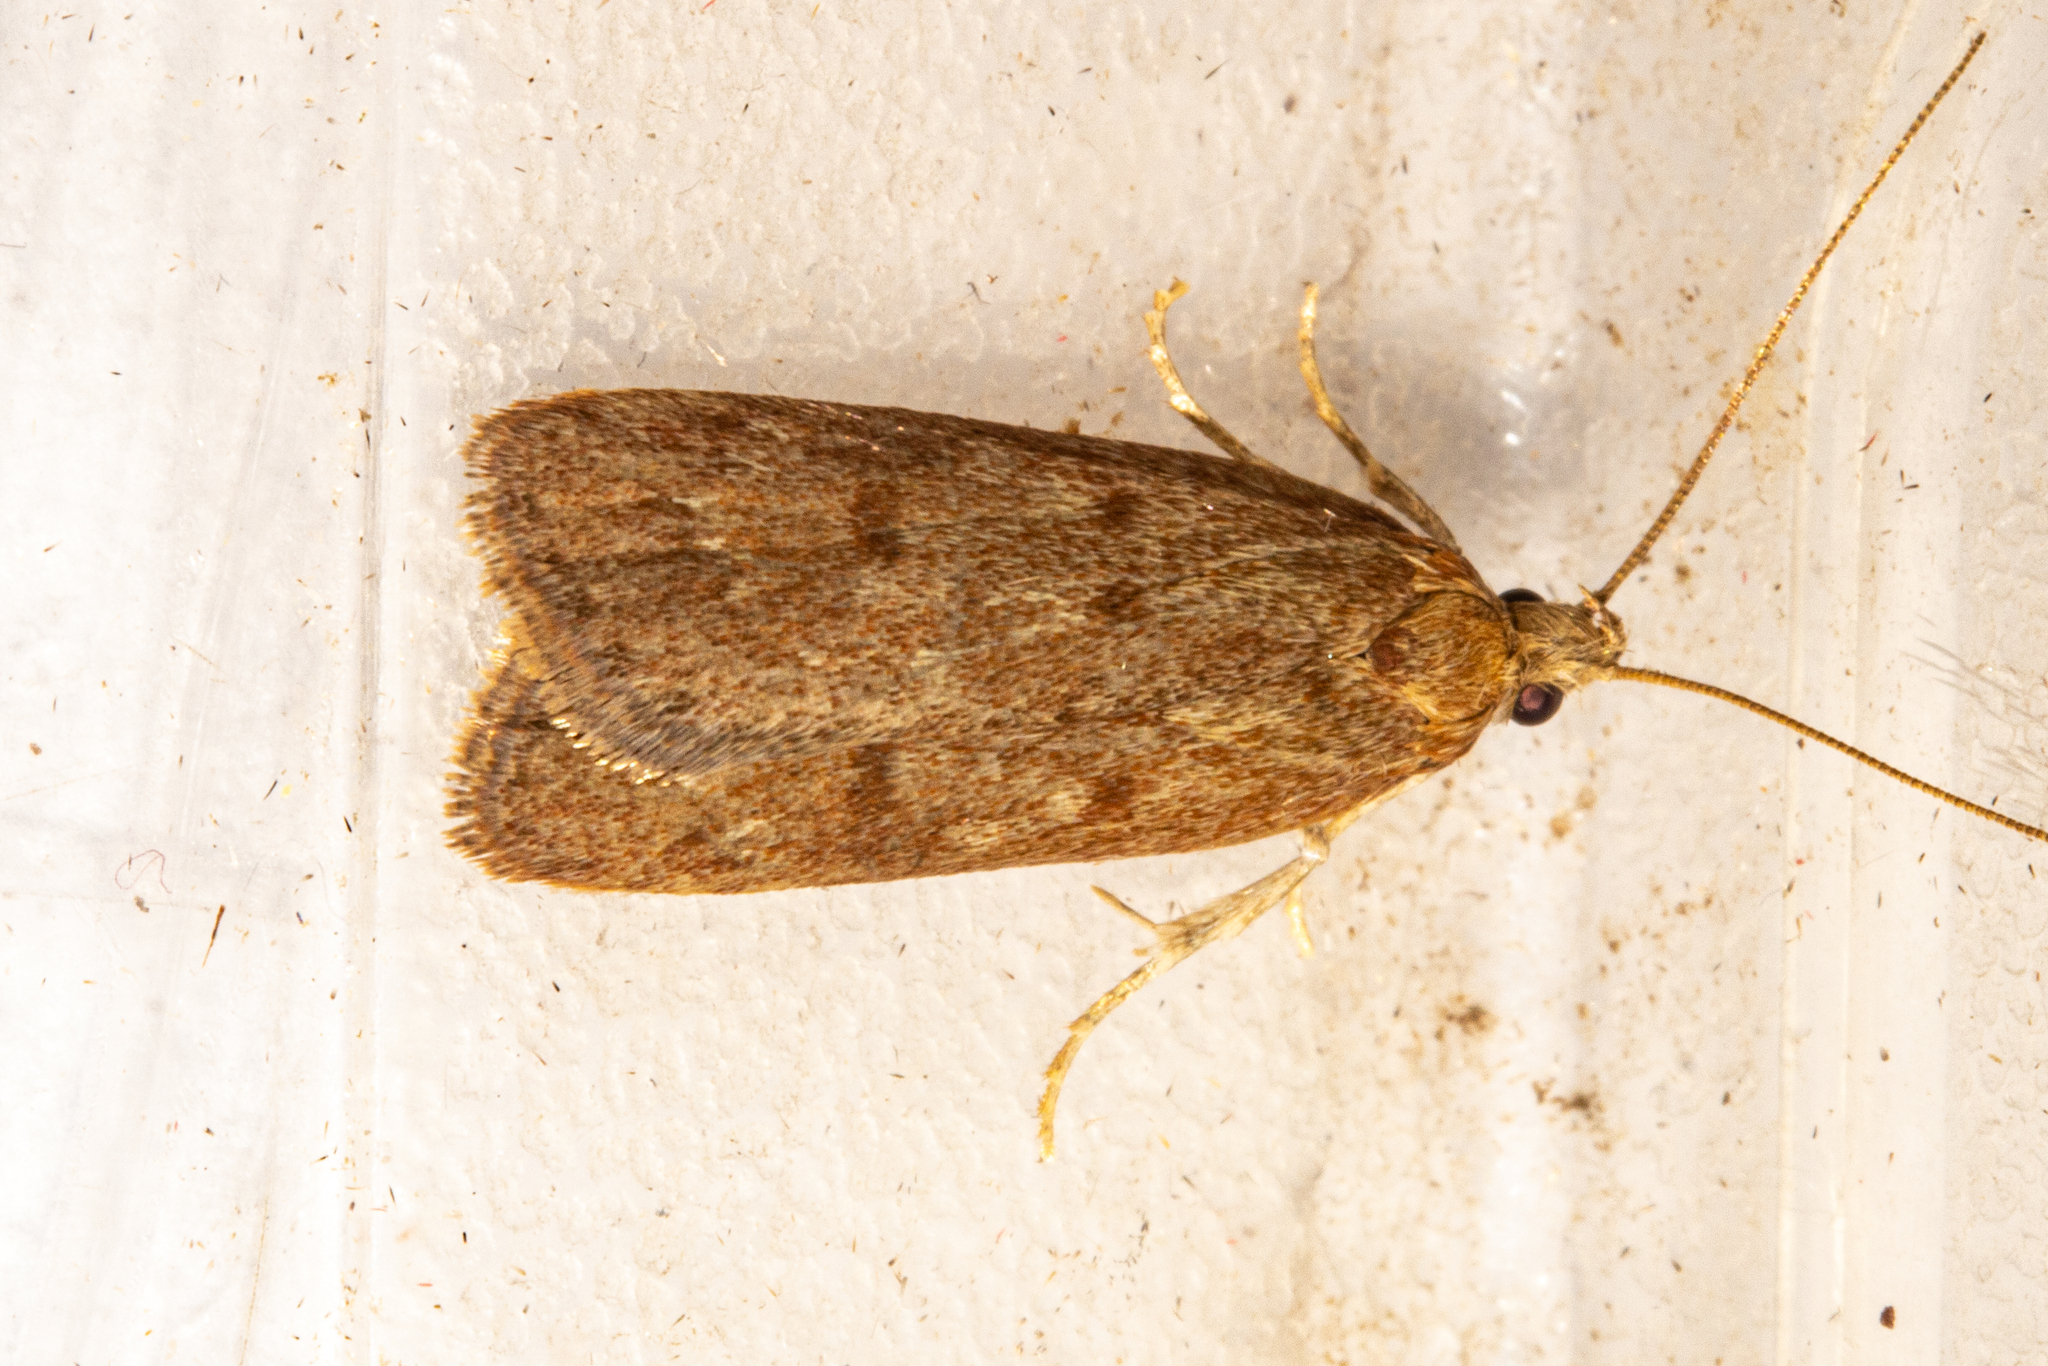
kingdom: Animalia
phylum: Arthropoda
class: Insecta
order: Lepidoptera
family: Depressariidae
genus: Phaeosaces
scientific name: Phaeosaces apocrypta
